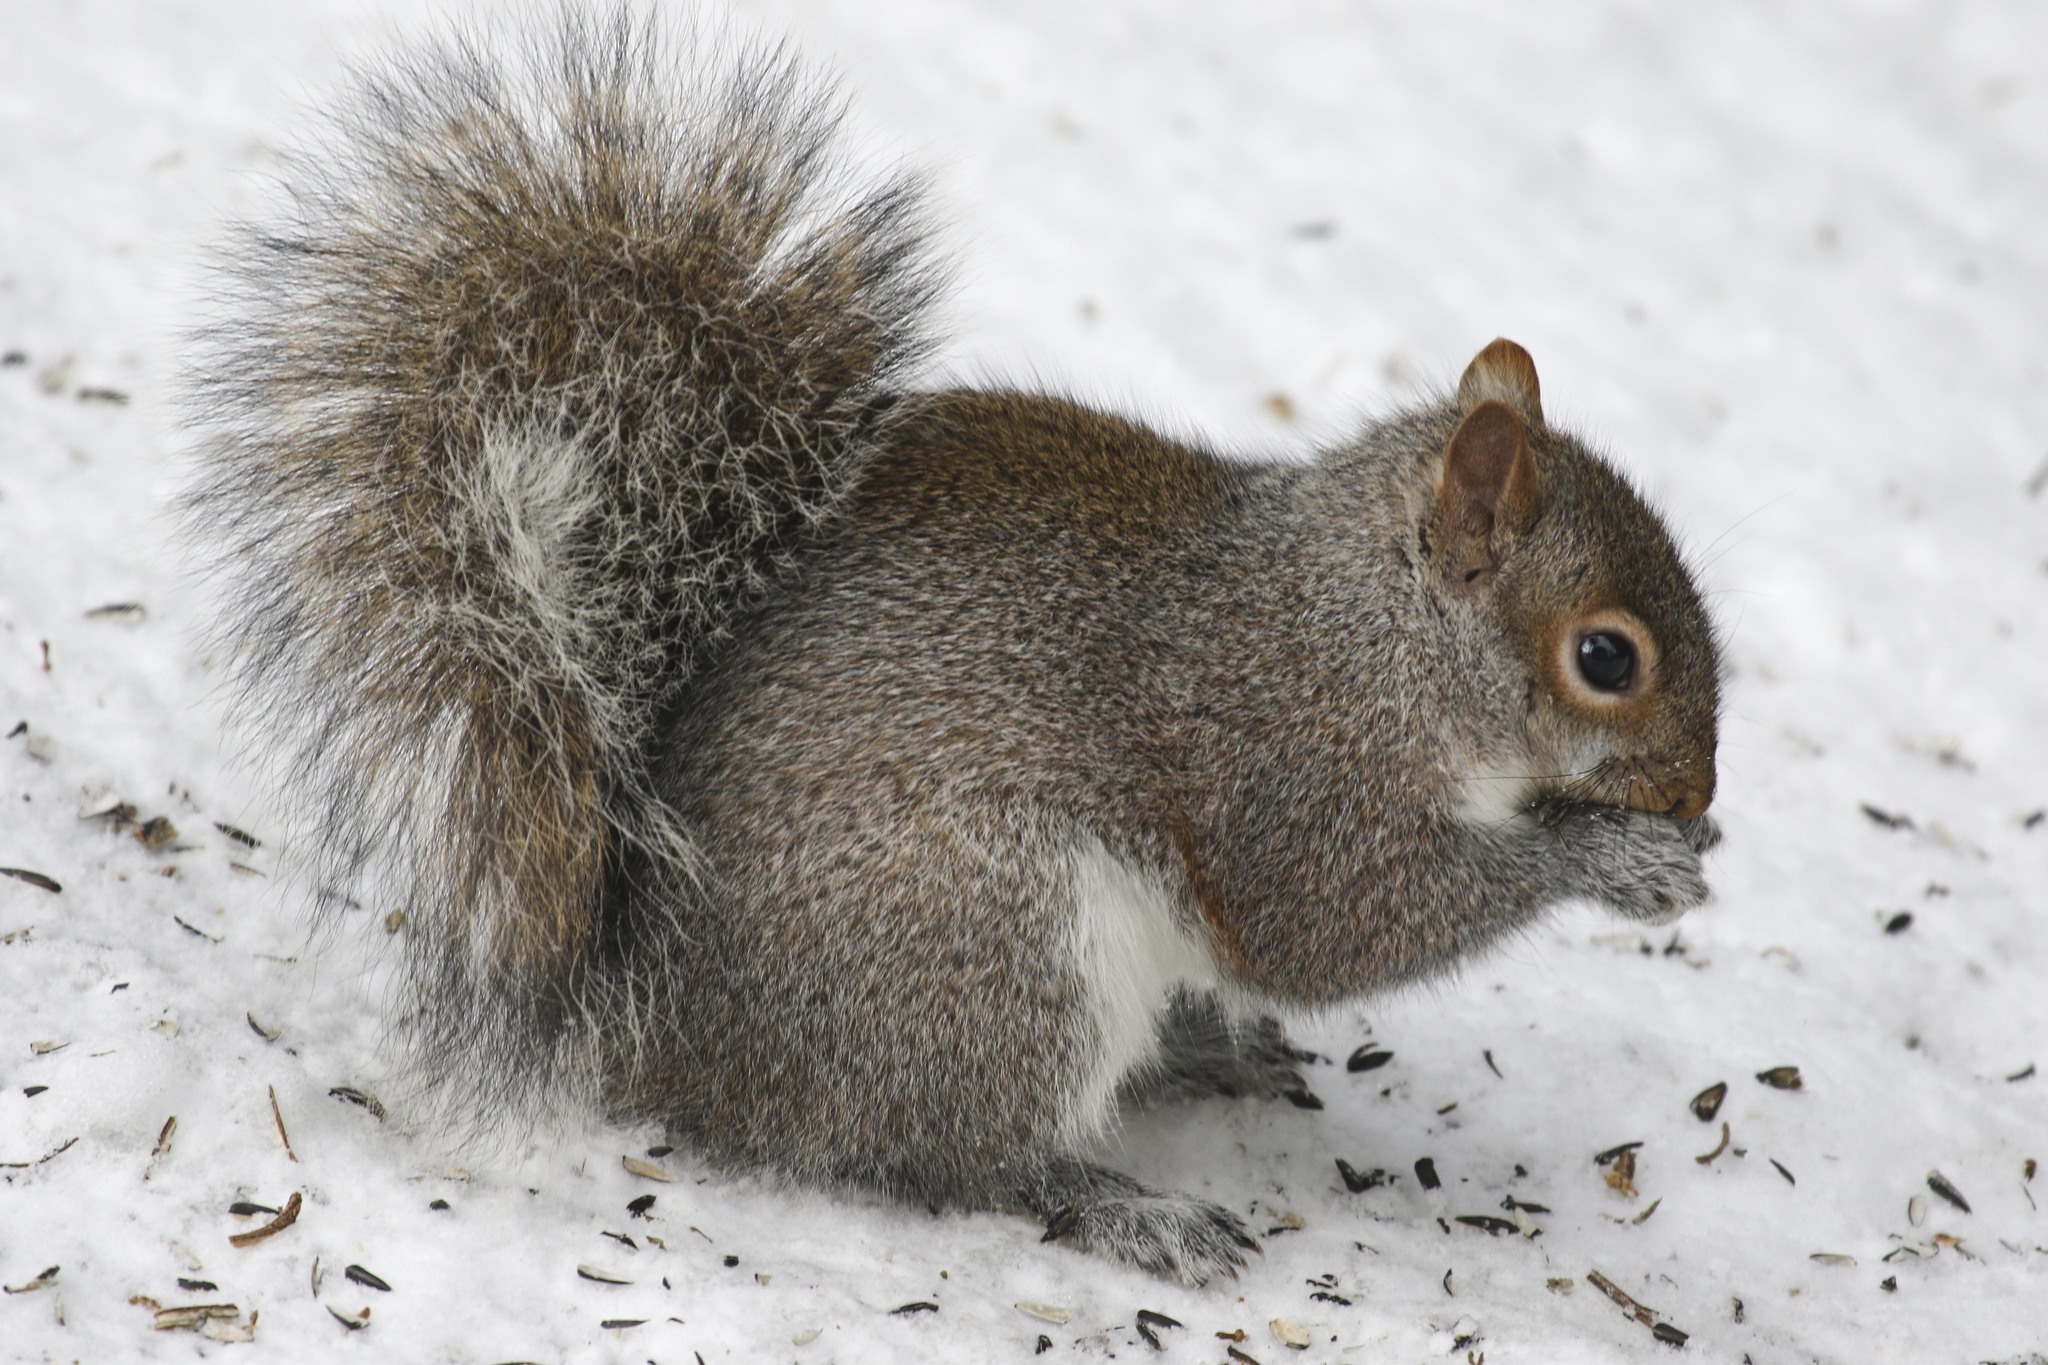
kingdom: Animalia
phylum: Chordata
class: Mammalia
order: Rodentia
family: Sciuridae
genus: Sciurus
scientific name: Sciurus carolinensis
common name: Eastern gray squirrel
